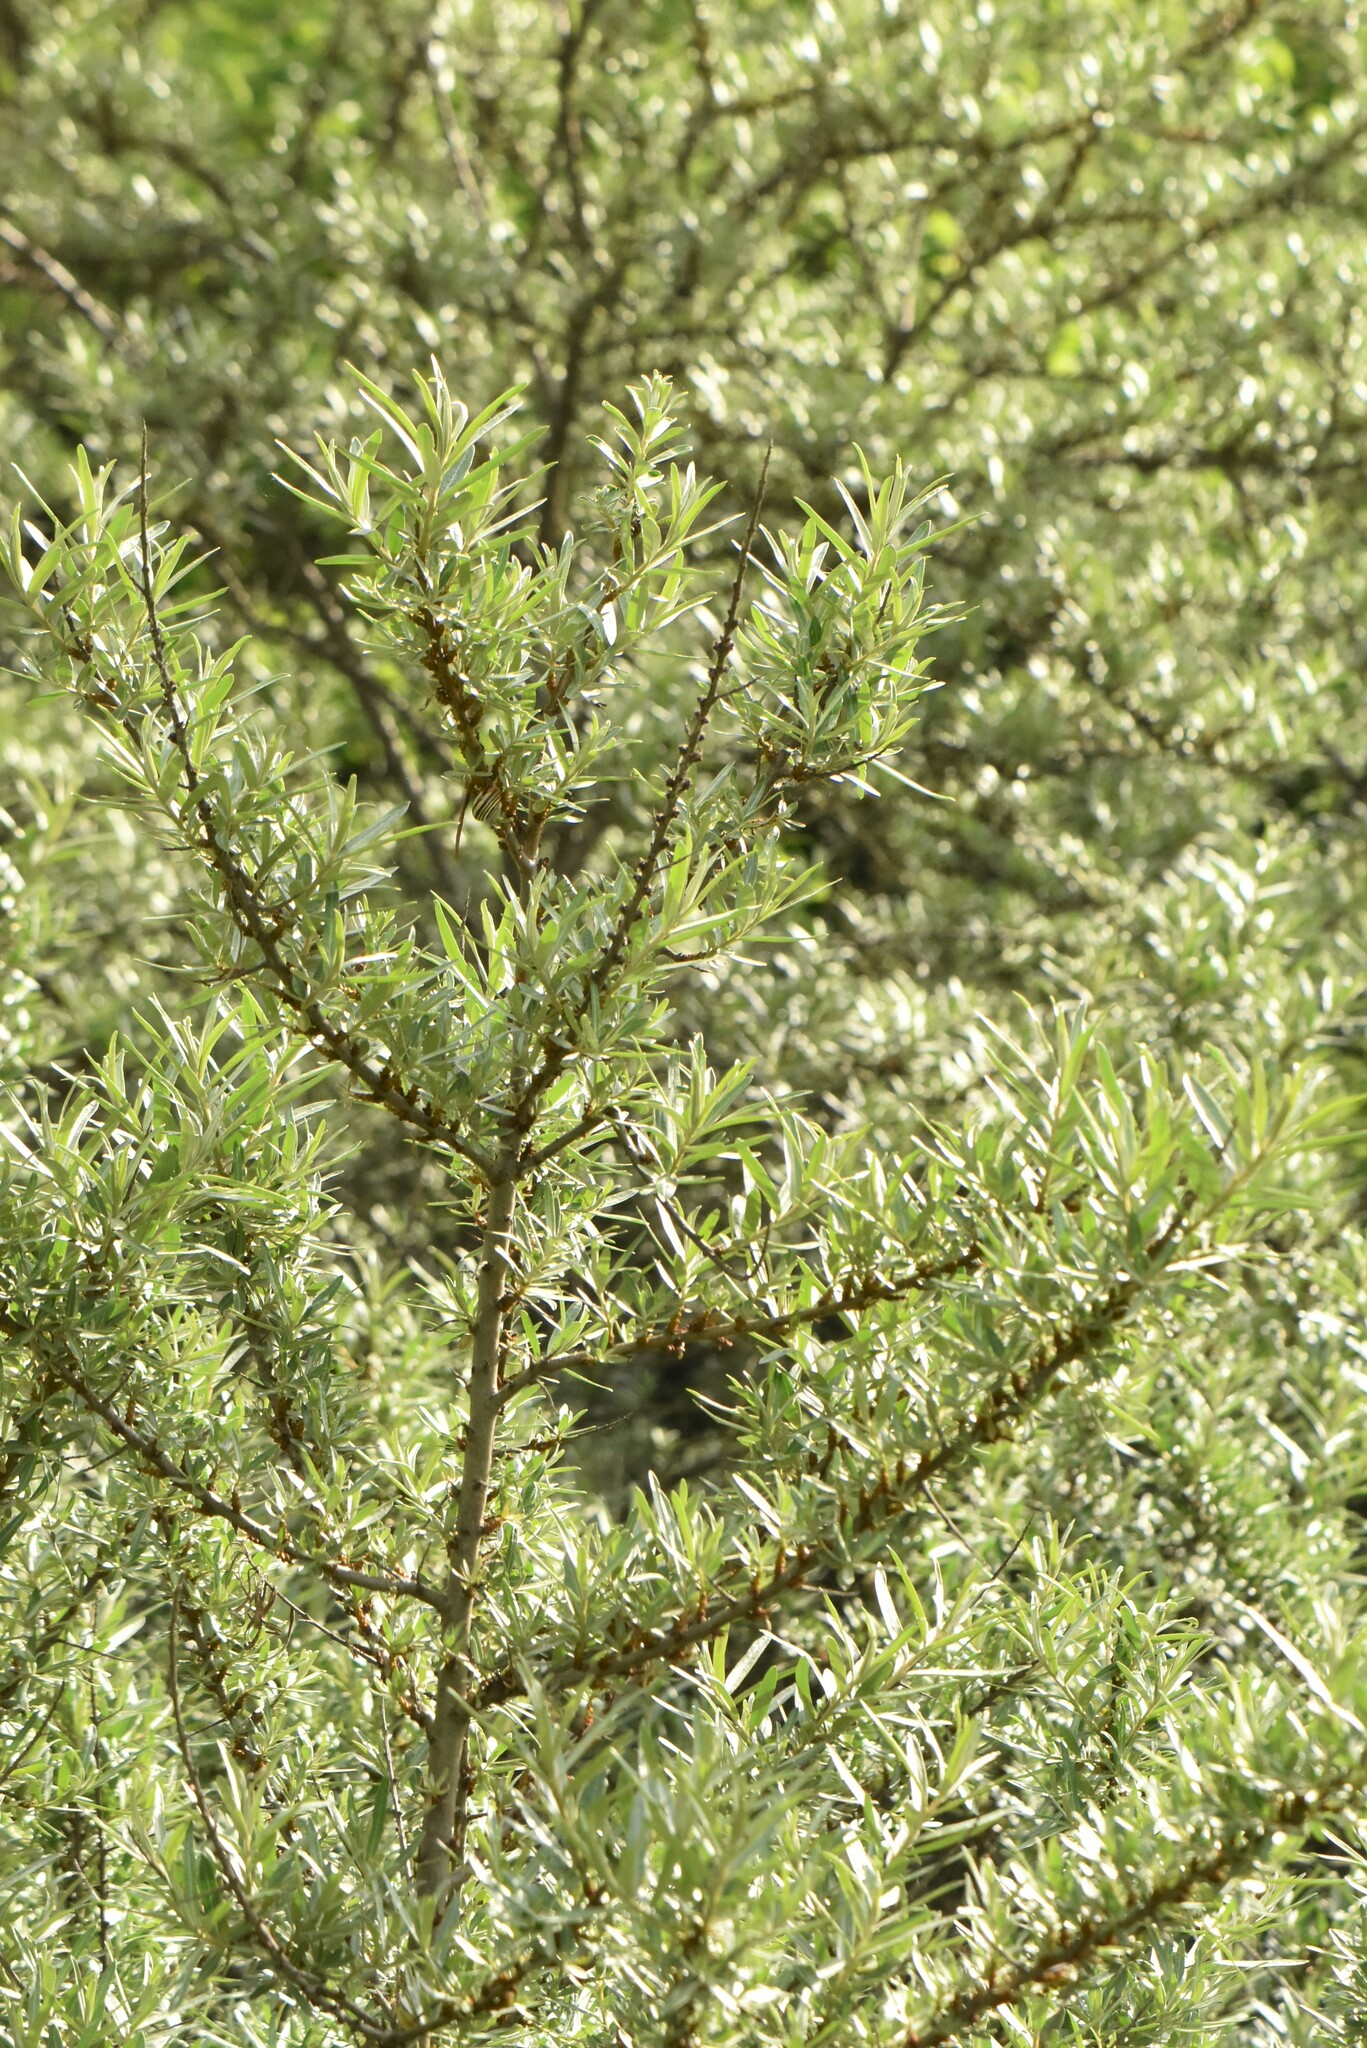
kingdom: Plantae
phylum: Tracheophyta
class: Magnoliopsida
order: Rosales
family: Elaeagnaceae
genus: Hippophae
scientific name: Hippophae rhamnoides
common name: Sea-buckthorn
